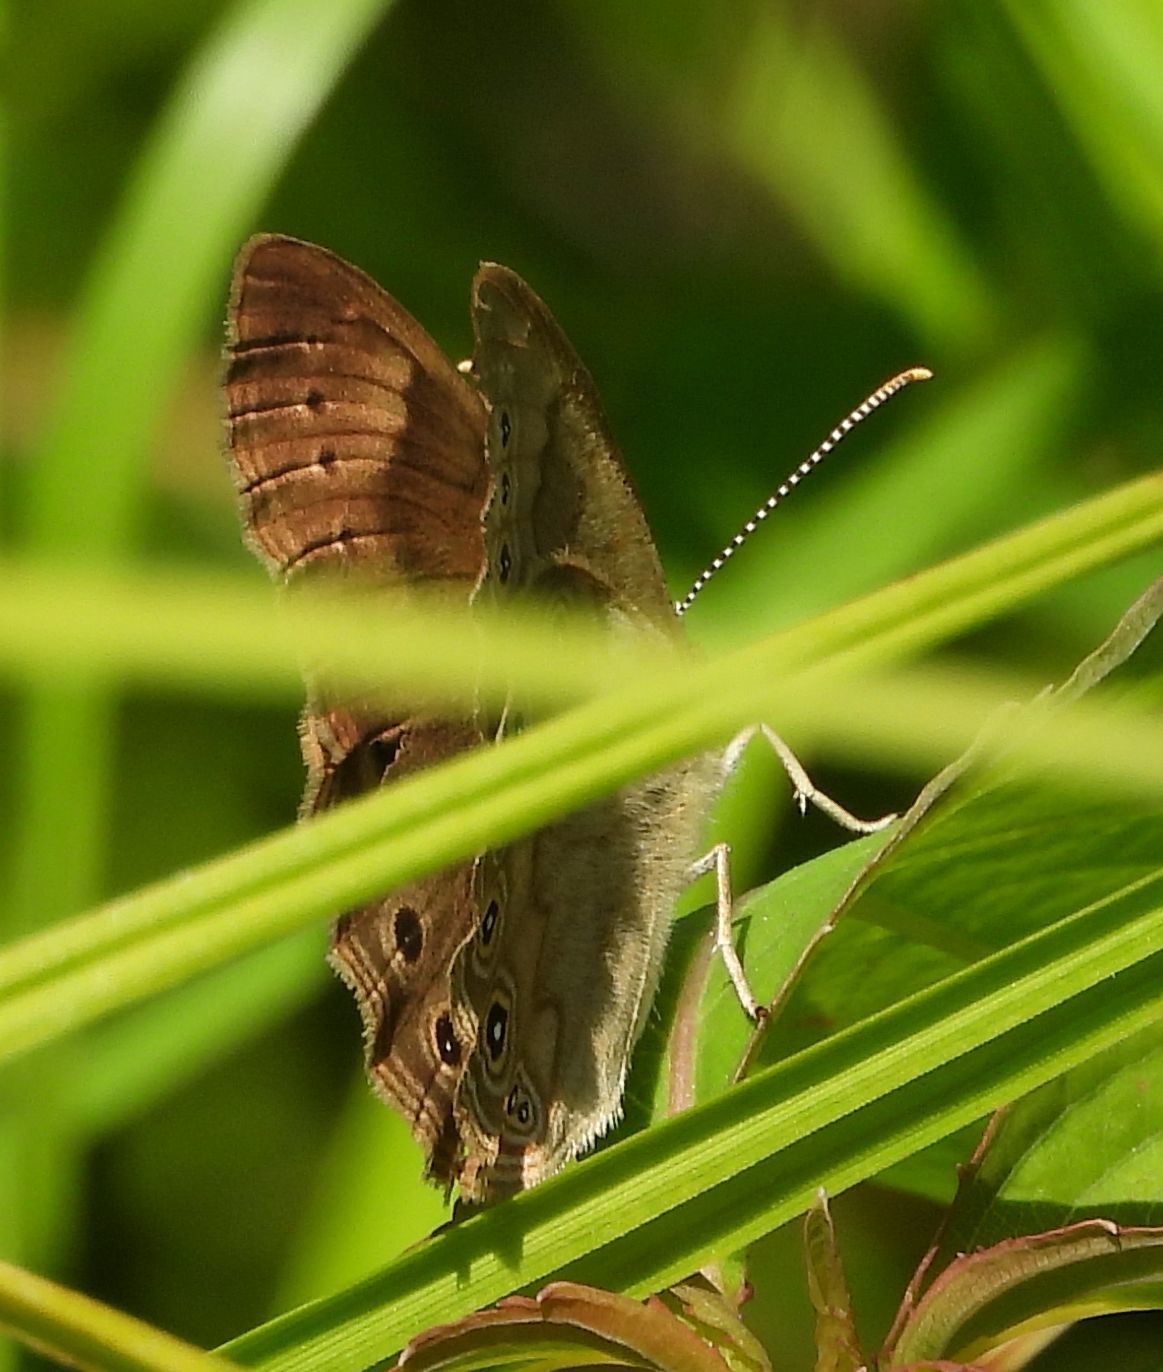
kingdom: Animalia
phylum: Arthropoda
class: Insecta
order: Lepidoptera
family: Nymphalidae
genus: Lethe
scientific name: Lethe eurydice
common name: Eyed brown
